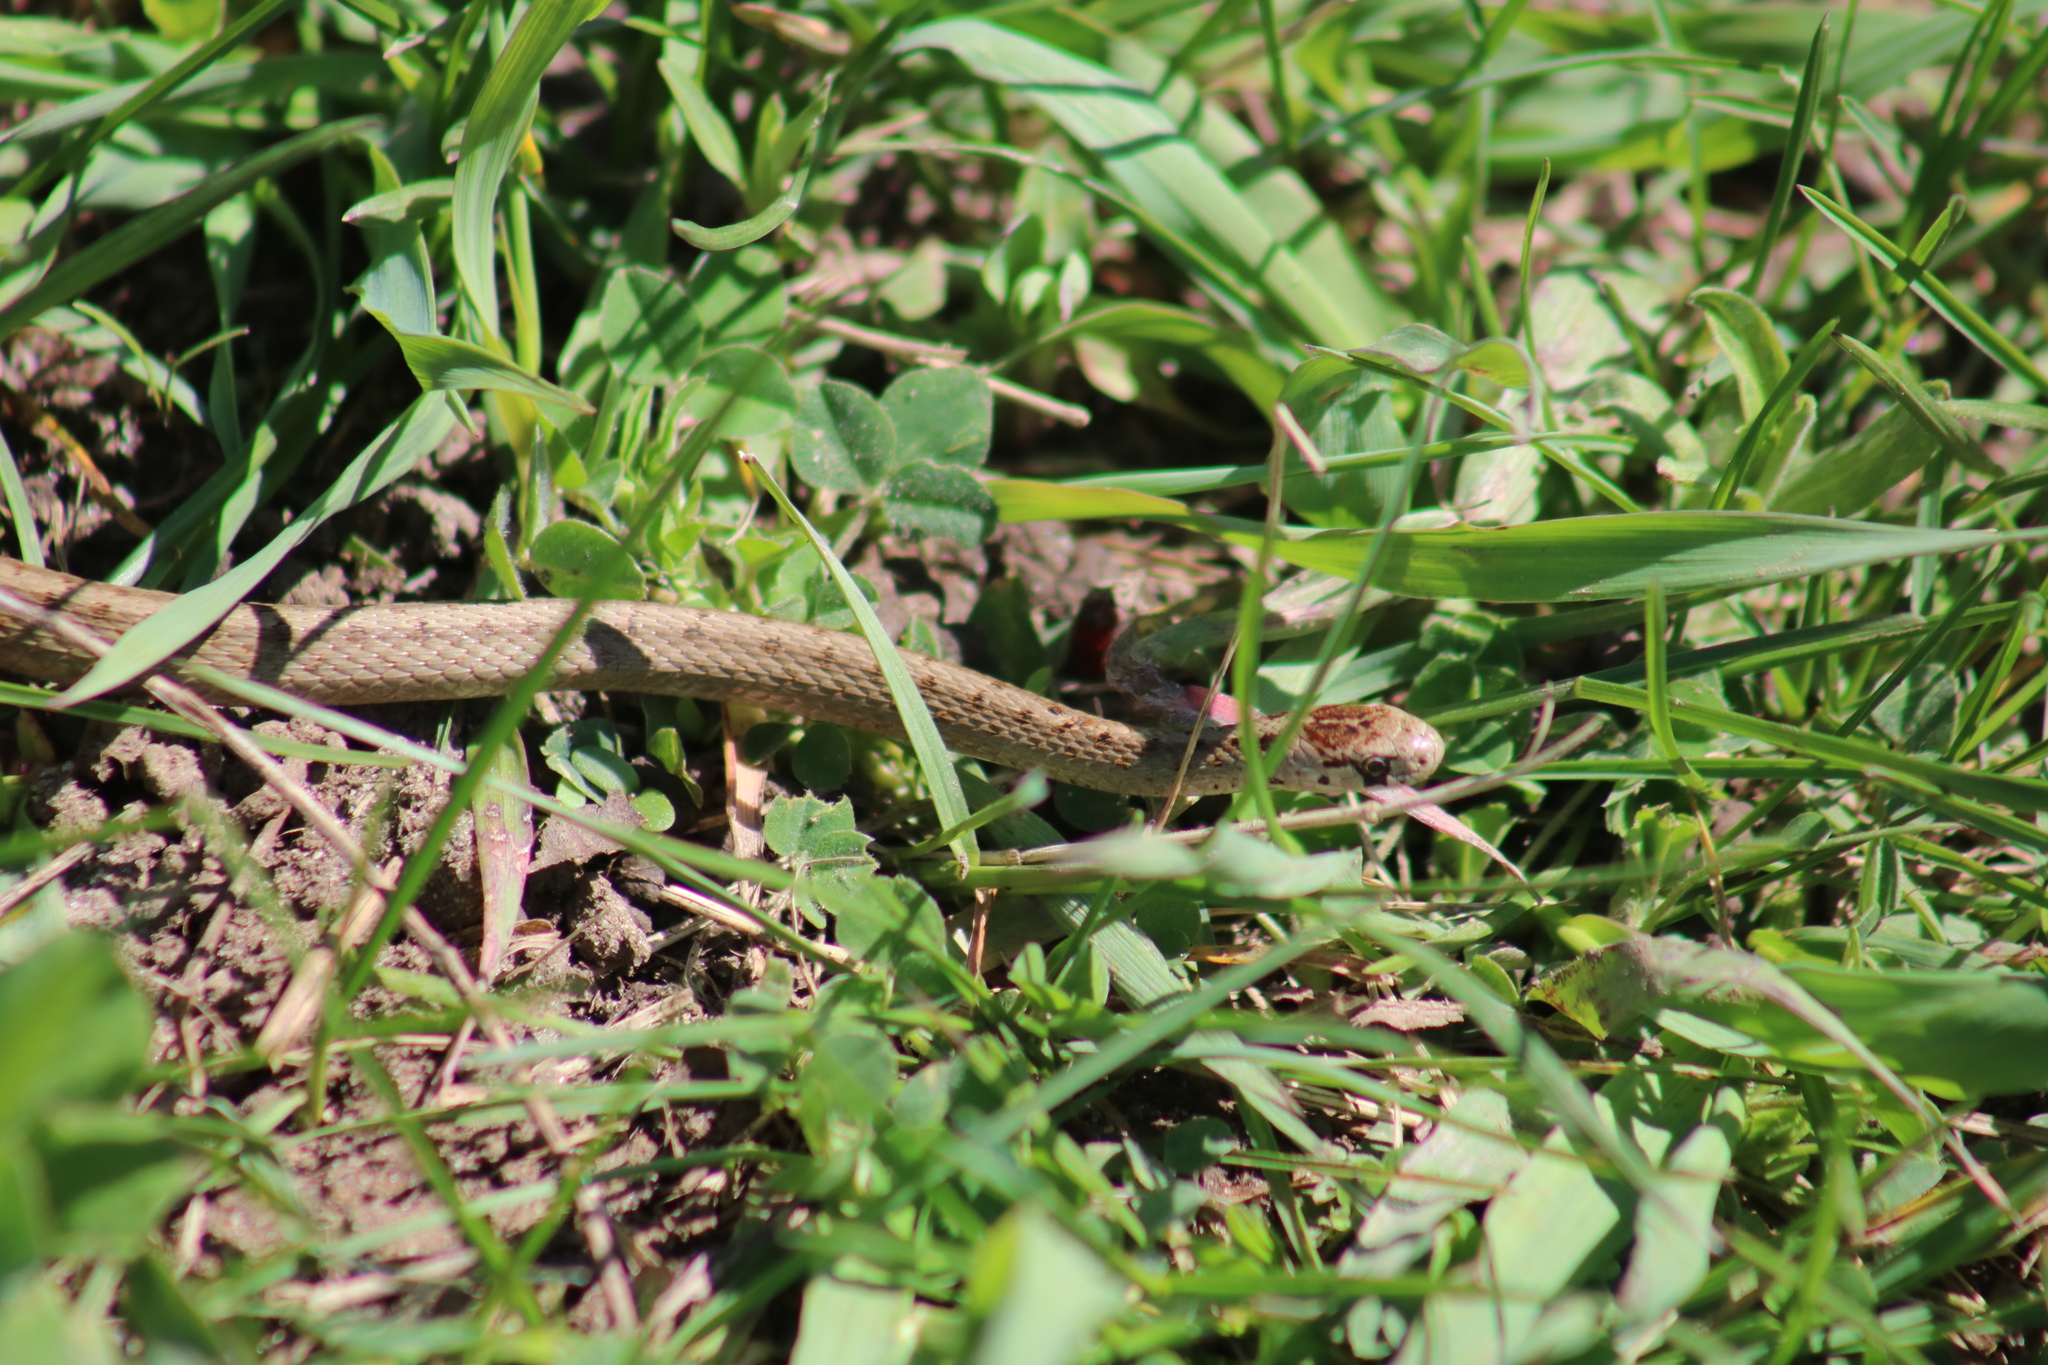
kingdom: Animalia
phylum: Chordata
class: Squamata
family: Colubridae
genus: Storeria
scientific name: Storeria dekayi
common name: (dekay’s) brown snake
